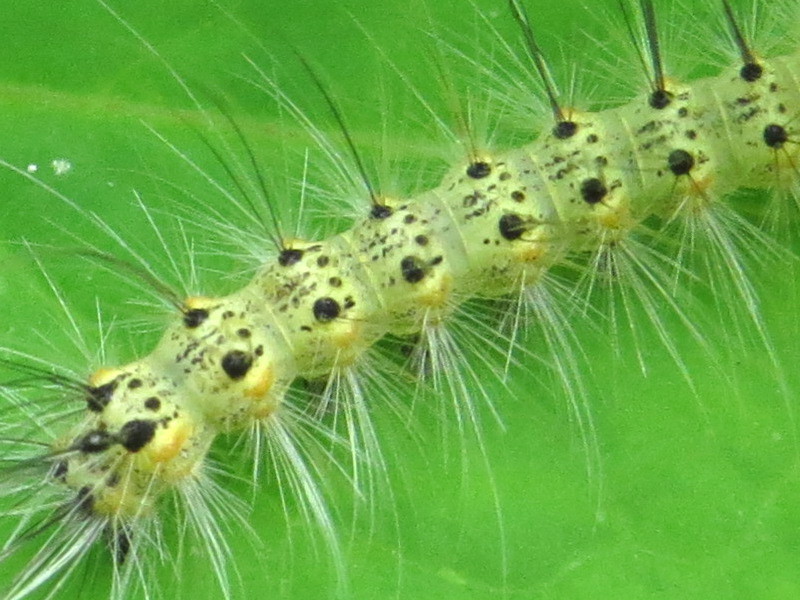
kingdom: Animalia
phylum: Arthropoda
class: Insecta
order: Lepidoptera
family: Erebidae
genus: Hyphantria
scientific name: Hyphantria cunea
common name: American white moth
